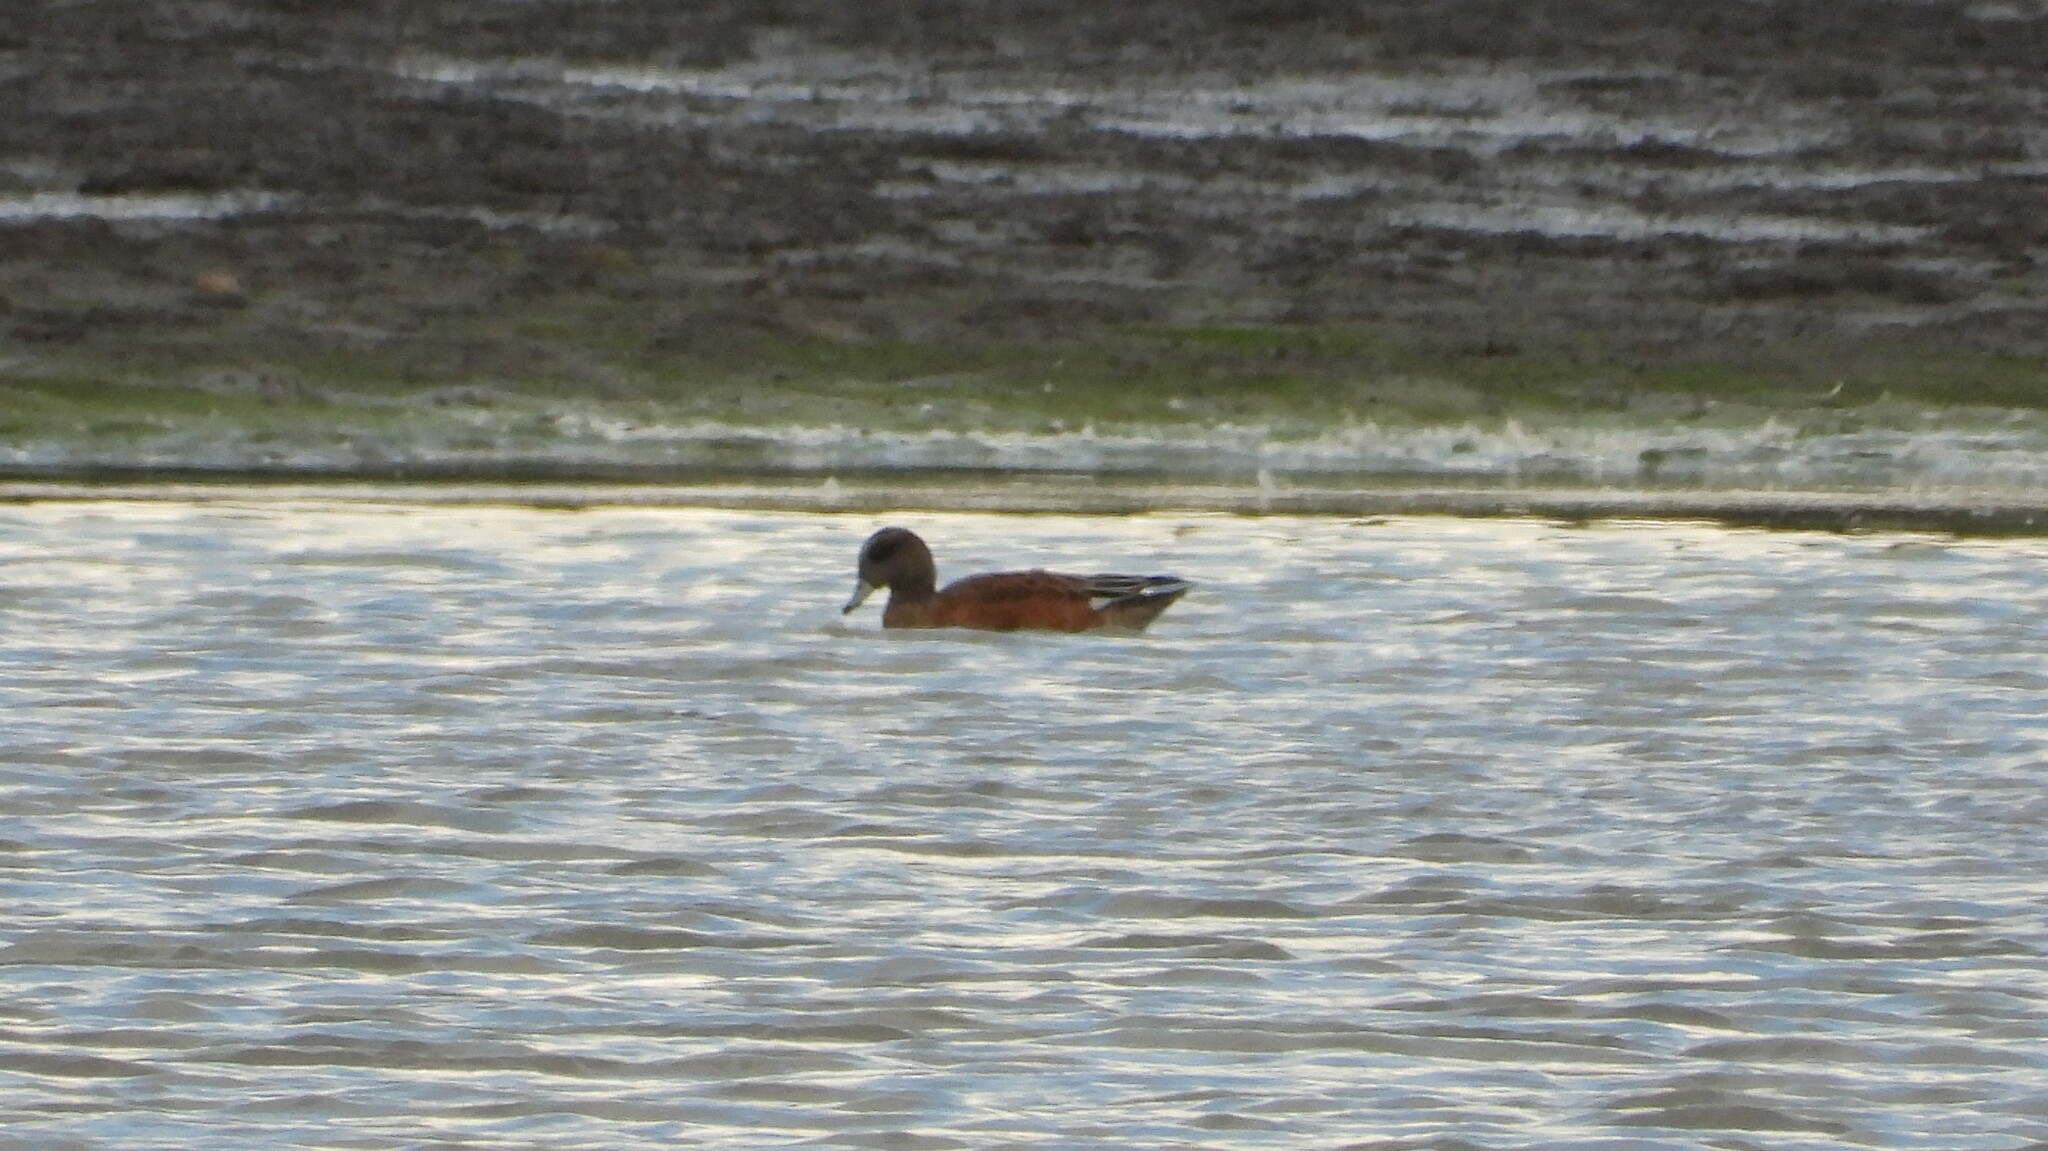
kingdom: Animalia
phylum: Chordata
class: Aves
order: Anseriformes
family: Anatidae
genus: Mareca
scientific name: Mareca americana
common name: American wigeon
